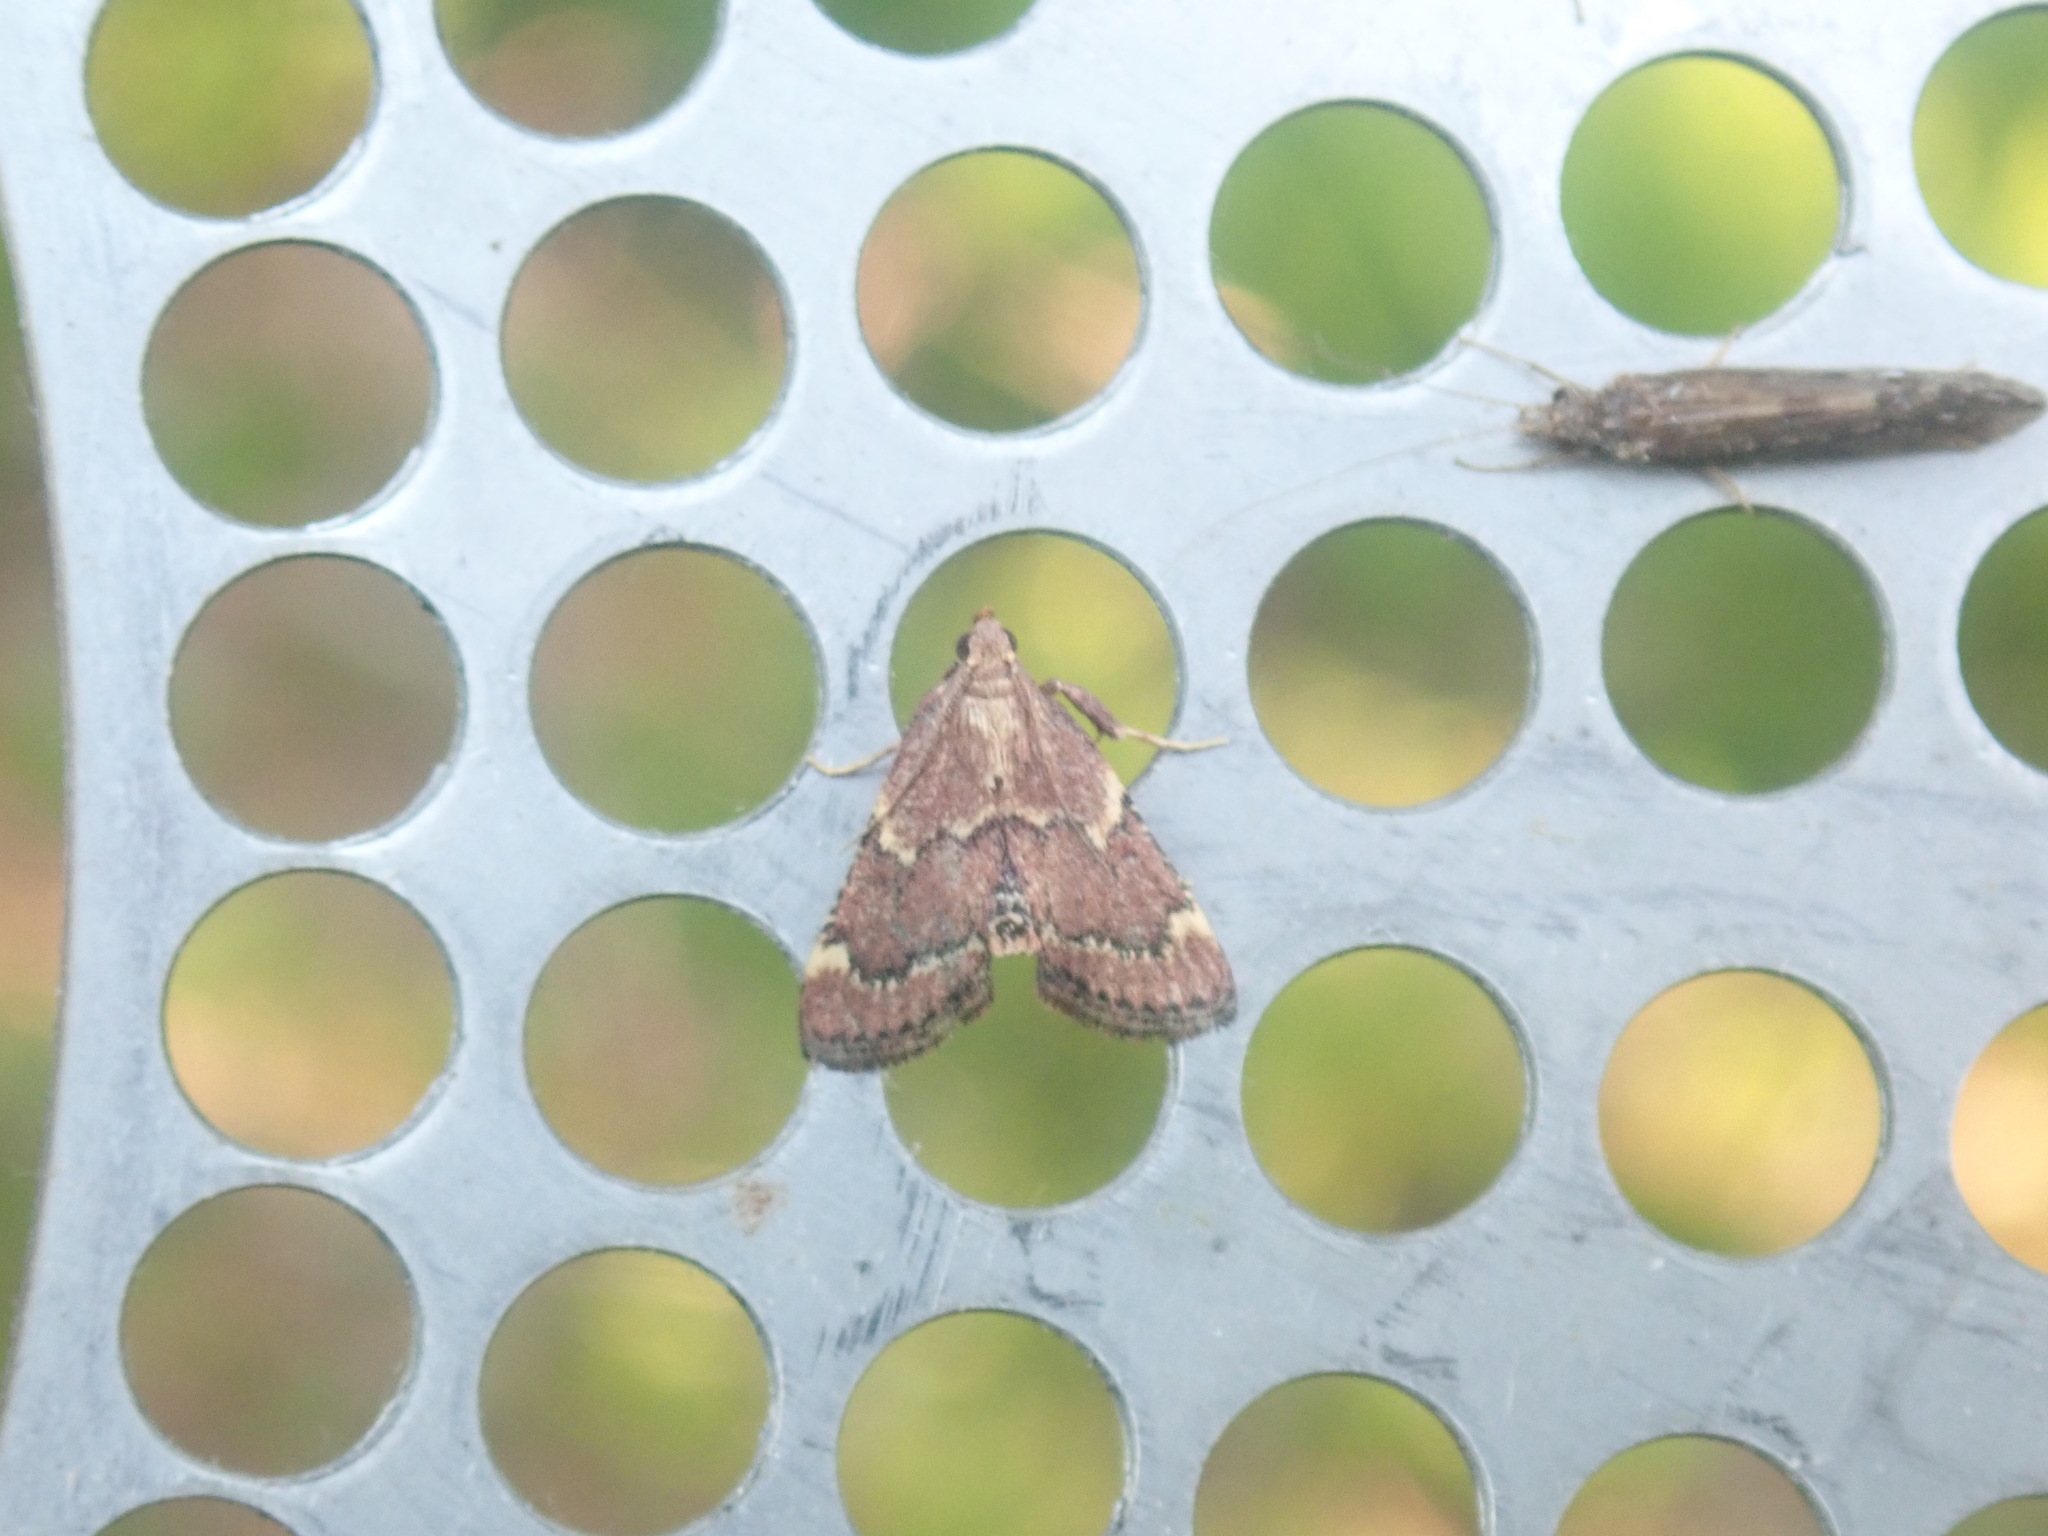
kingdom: Animalia
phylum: Arthropoda
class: Insecta
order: Lepidoptera
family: Pyralidae
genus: Hypsopygia
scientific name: Hypsopygia intermedialis
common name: Red-shawled moth
